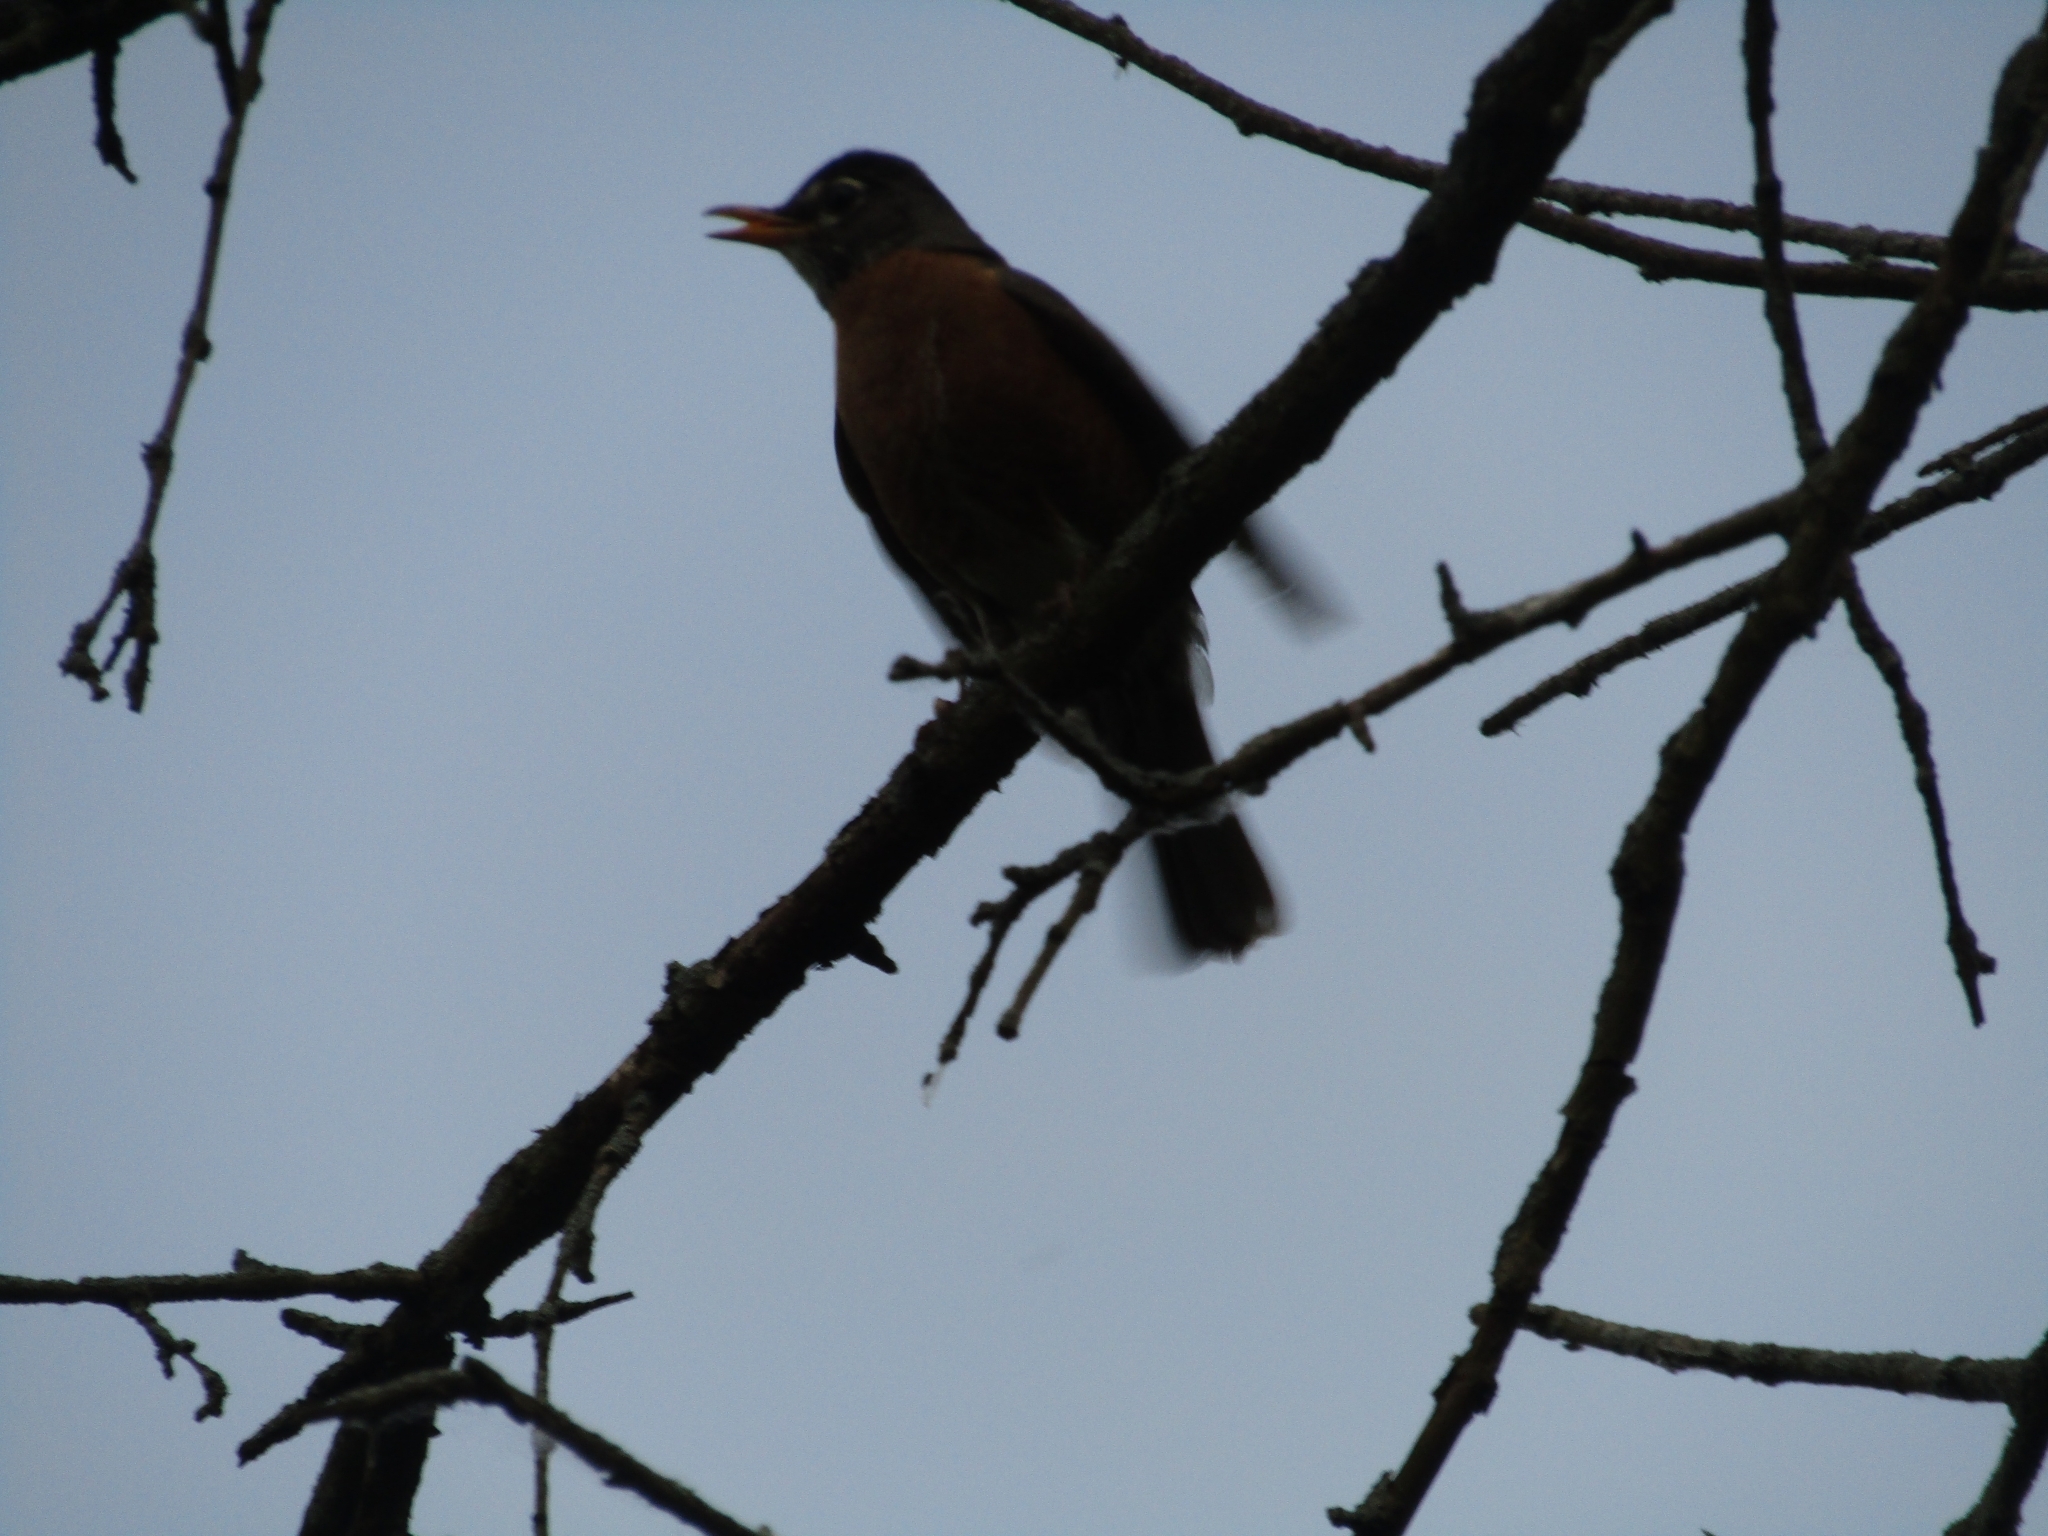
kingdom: Animalia
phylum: Chordata
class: Aves
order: Passeriformes
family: Turdidae
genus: Turdus
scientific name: Turdus migratorius
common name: American robin
